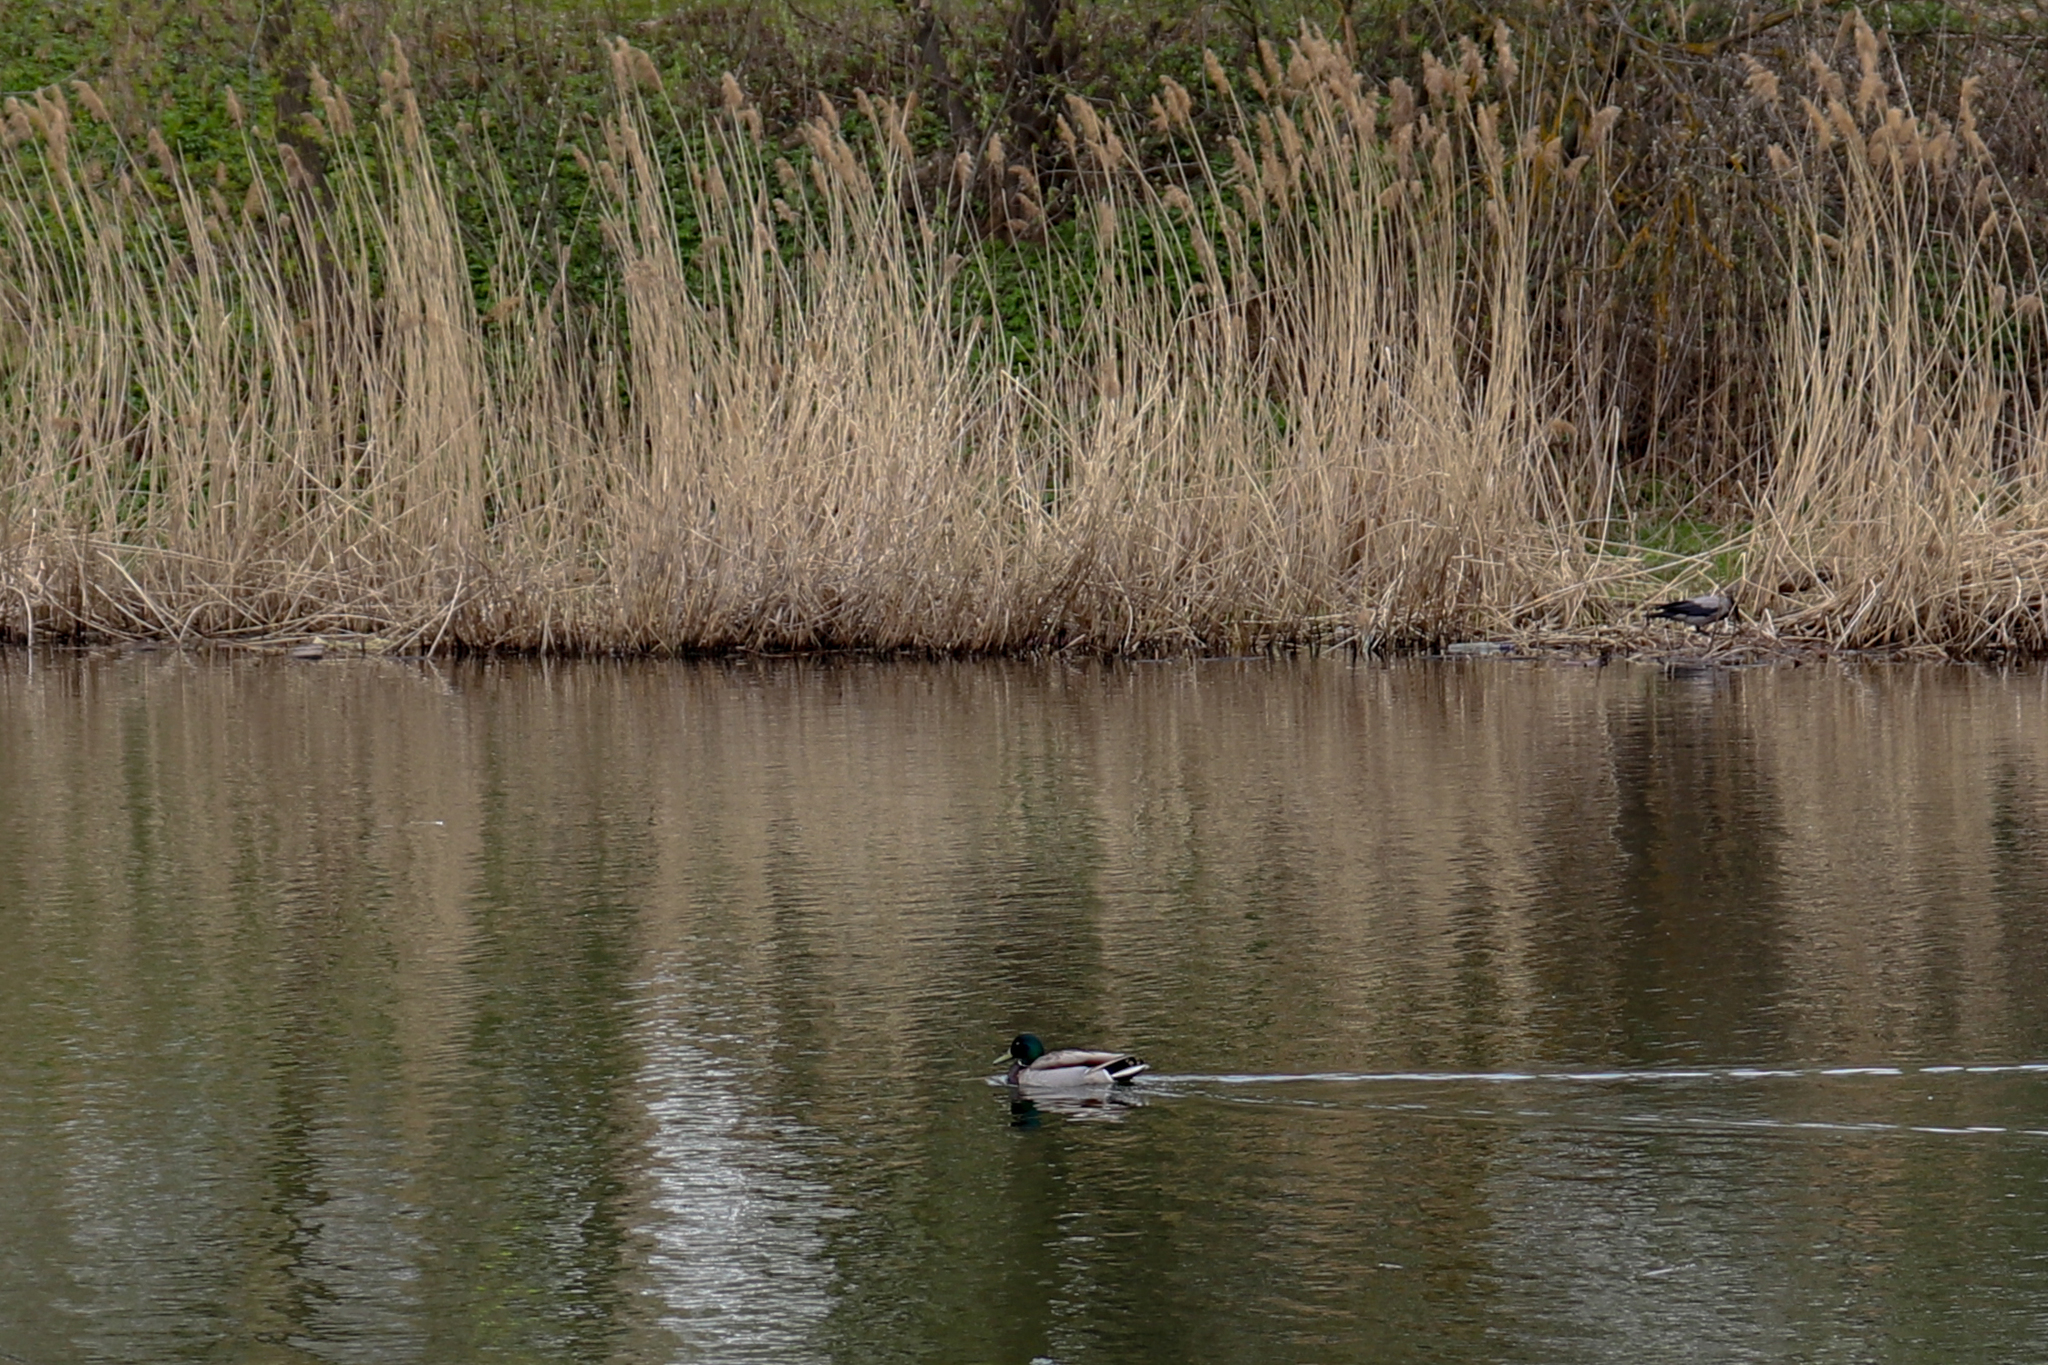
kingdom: Animalia
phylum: Chordata
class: Aves
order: Anseriformes
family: Anatidae
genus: Anas
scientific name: Anas platyrhynchos
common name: Mallard
